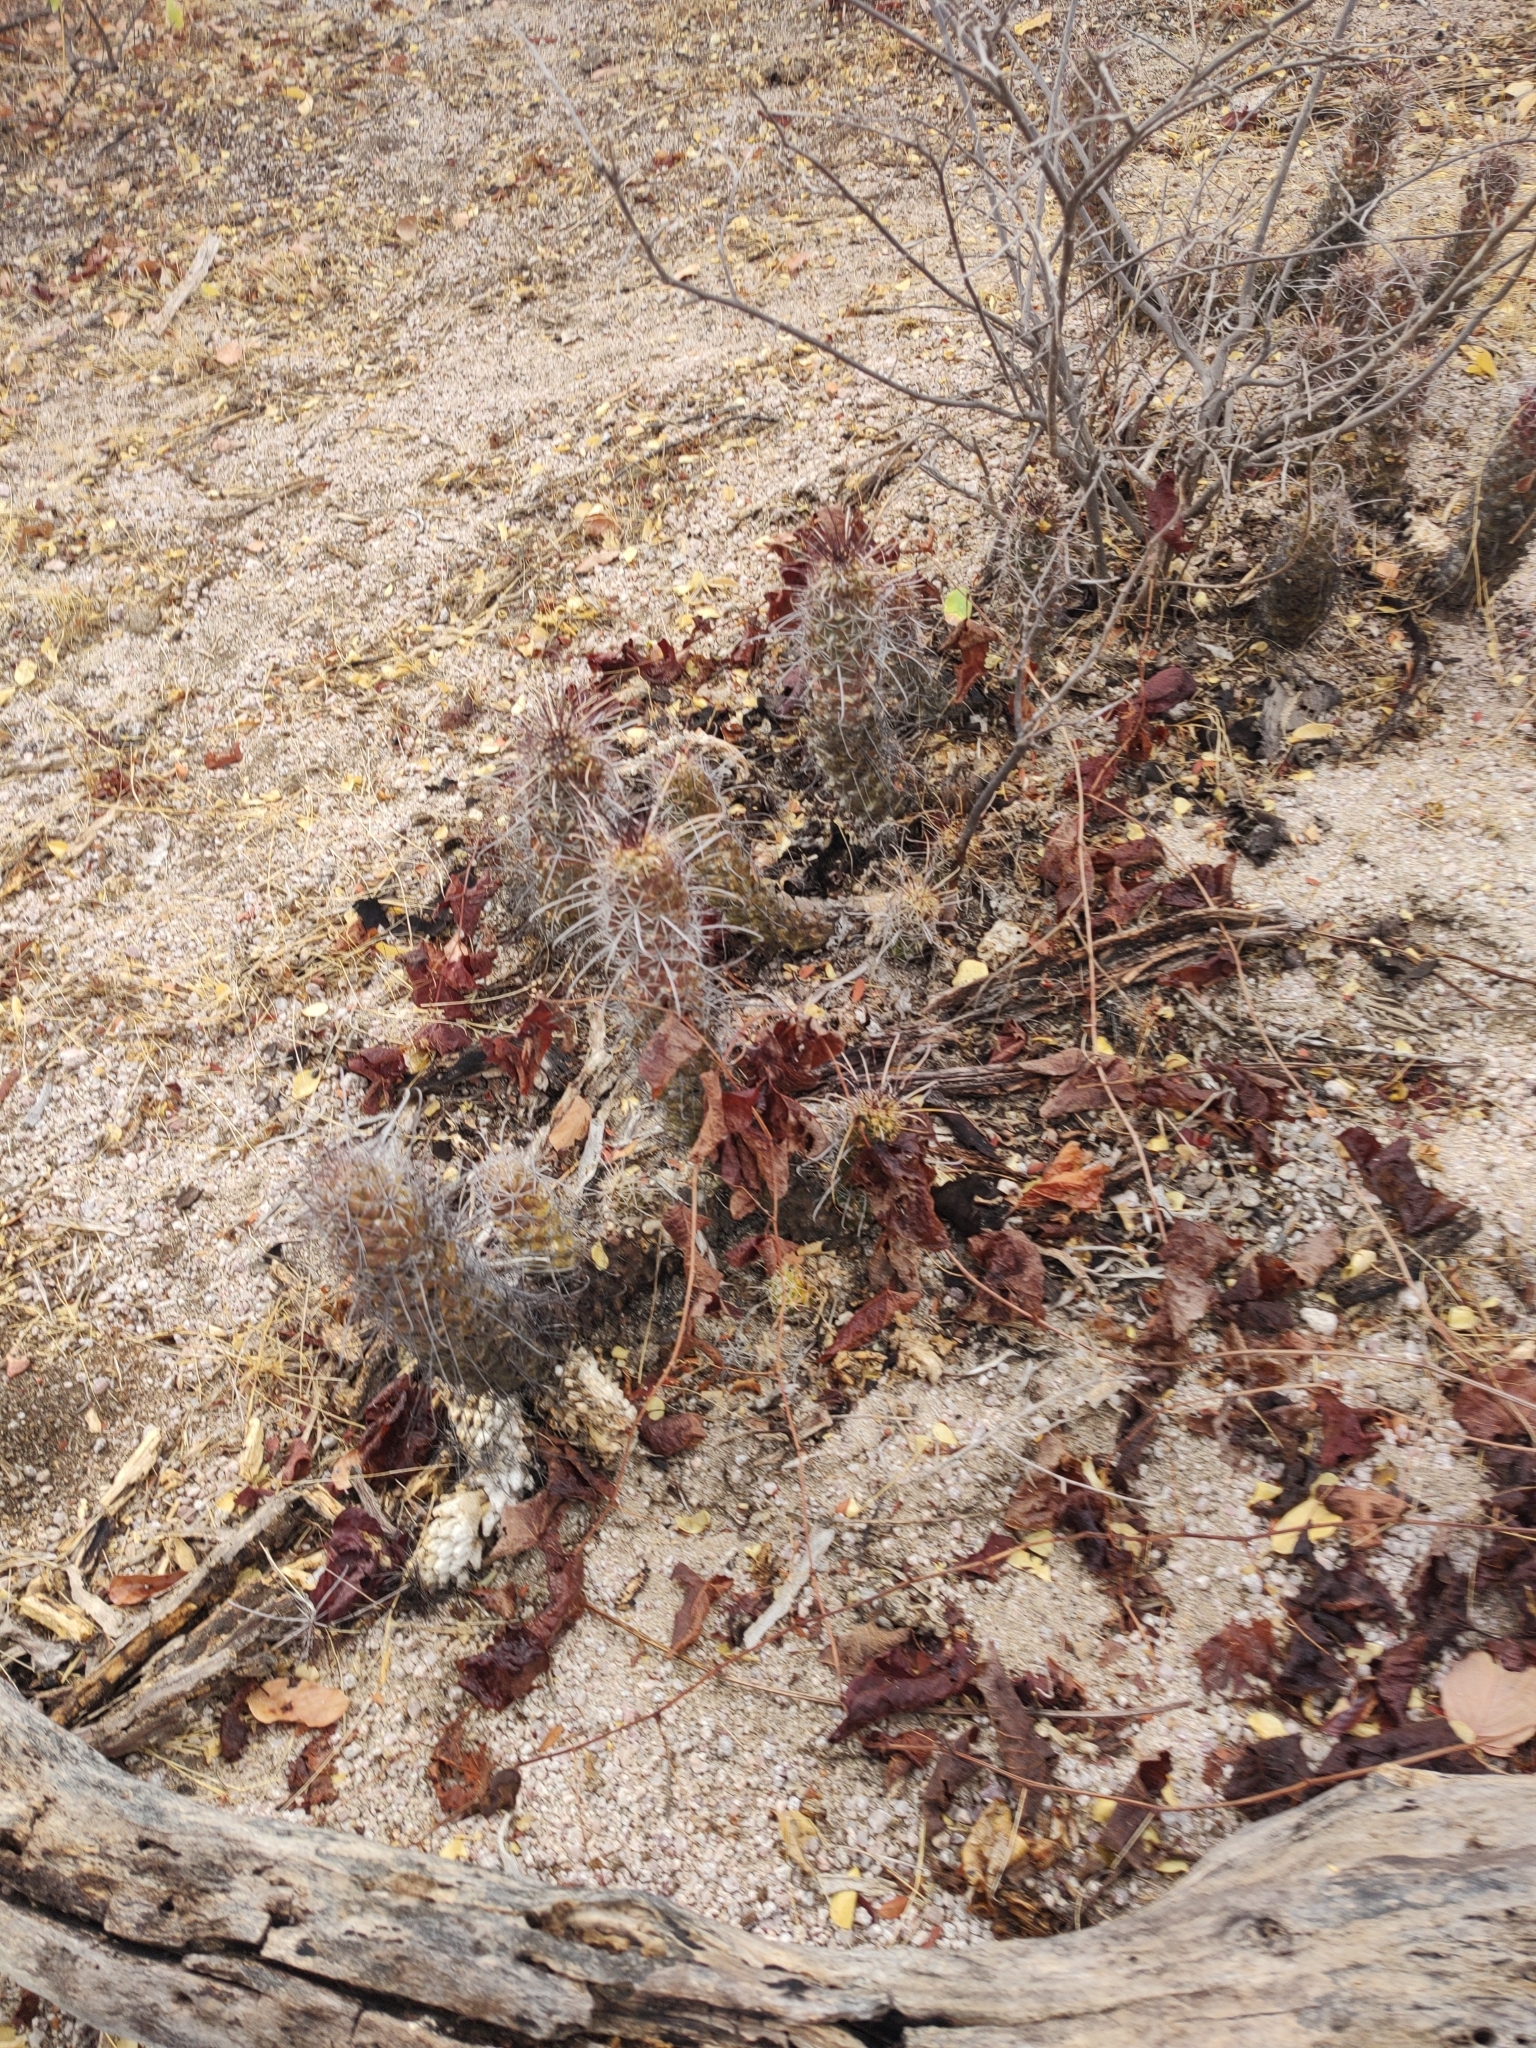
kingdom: Plantae
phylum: Tracheophyta
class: Magnoliopsida
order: Caryophyllales
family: Cactaceae
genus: Cochemiea
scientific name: Cochemiea poselgeri
